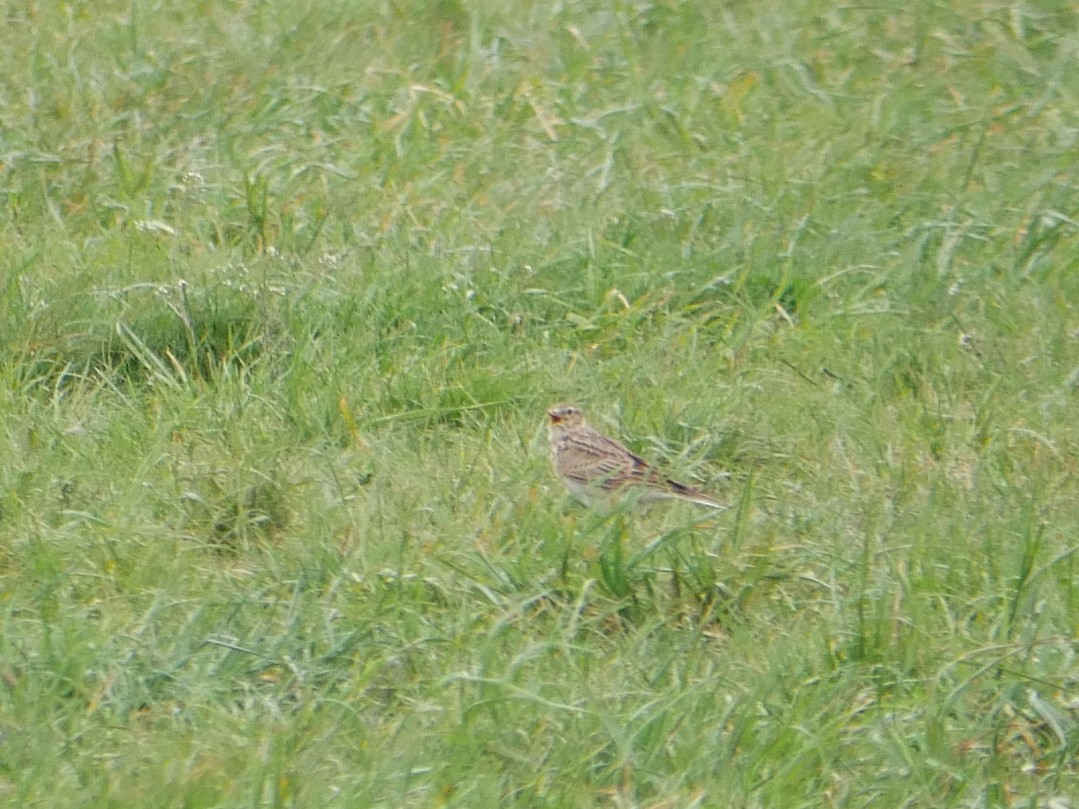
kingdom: Animalia
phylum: Chordata
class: Aves
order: Passeriformes
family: Alaudidae
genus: Alauda
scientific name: Alauda arvensis
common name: Eurasian skylark
